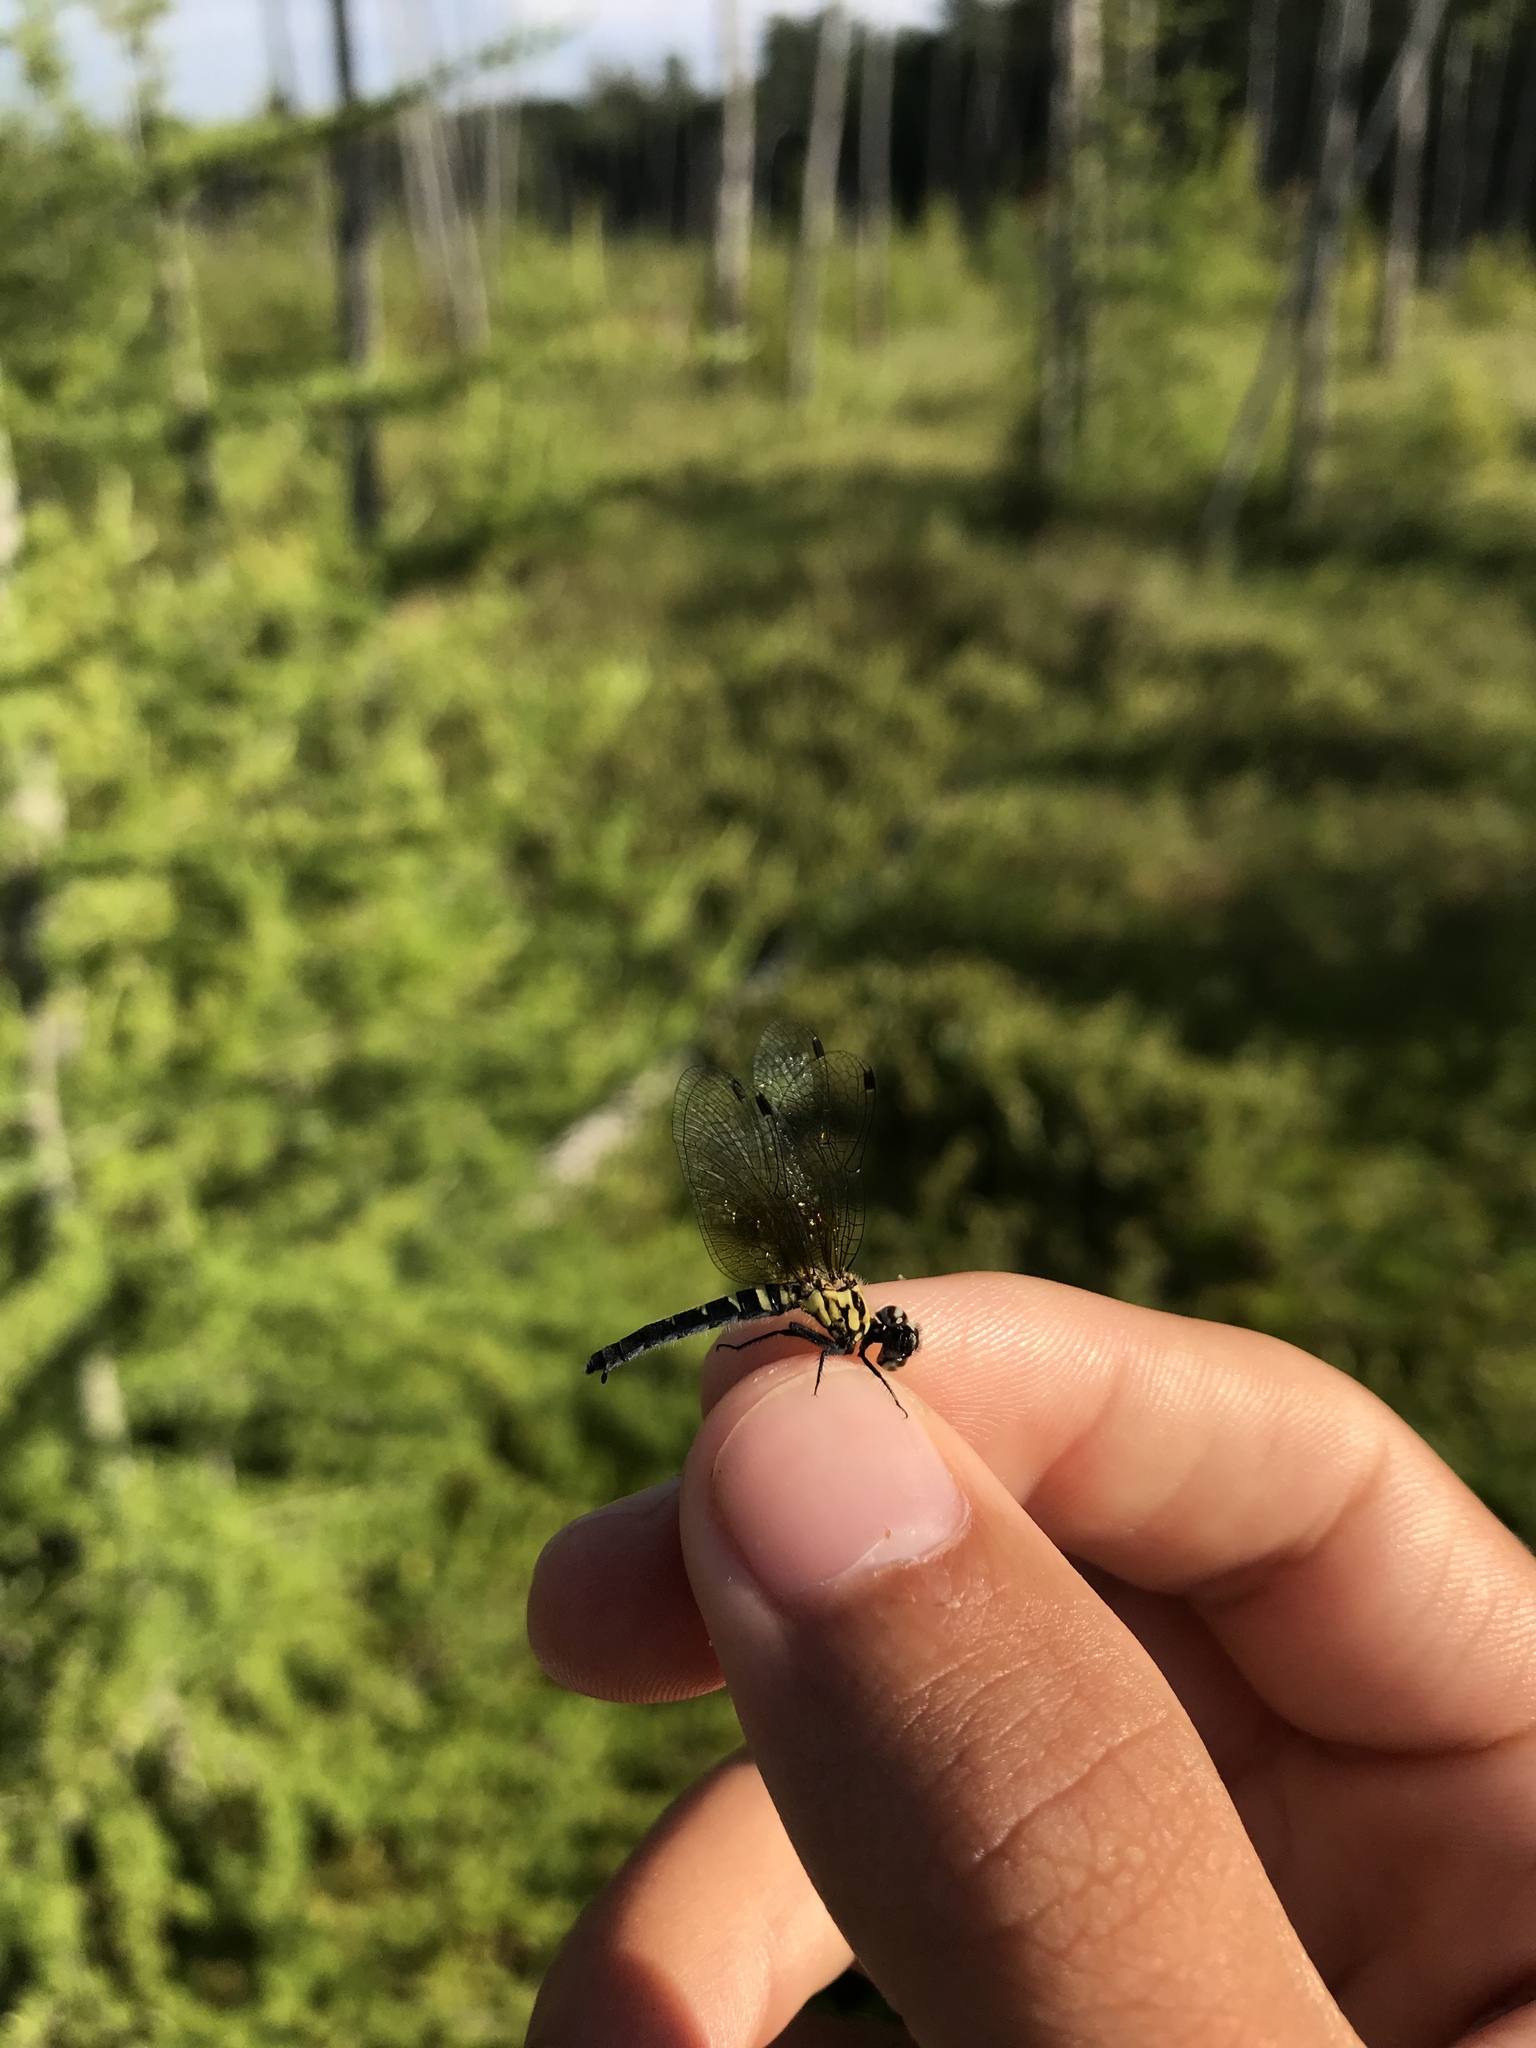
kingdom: Animalia
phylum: Arthropoda
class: Insecta
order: Odonata
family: Libellulidae
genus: Nannothemis
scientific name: Nannothemis bella
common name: Elfin skimmer
